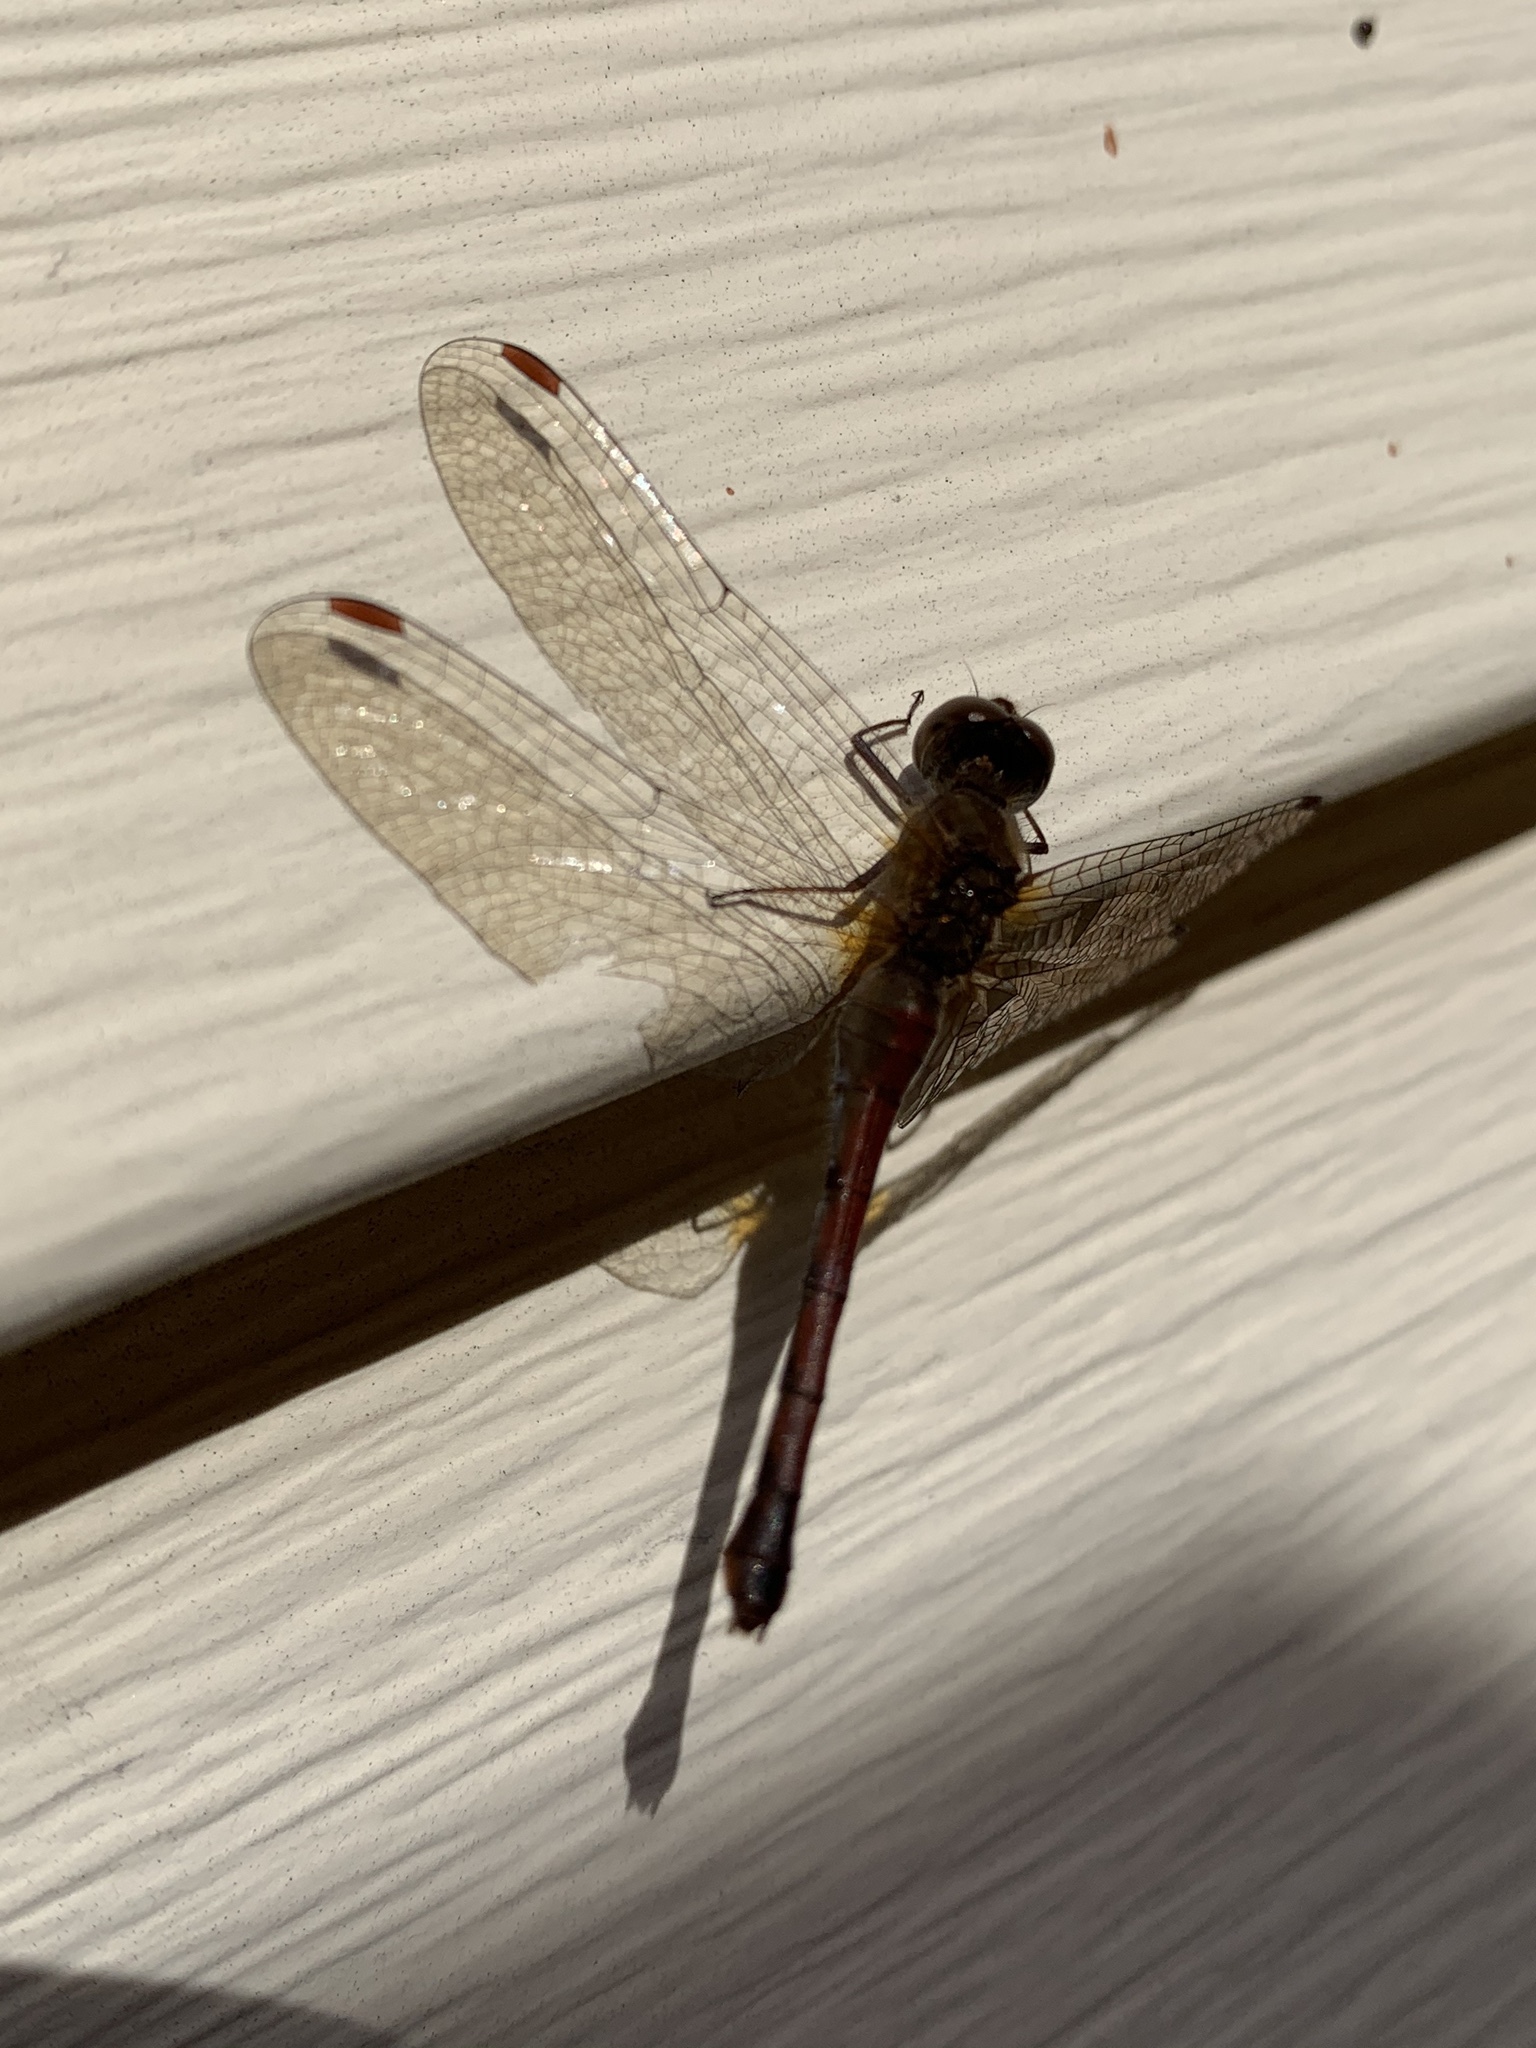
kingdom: Animalia
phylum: Arthropoda
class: Insecta
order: Odonata
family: Libellulidae
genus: Sympetrum
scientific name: Sympetrum vicinum
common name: Autumn meadowhawk
